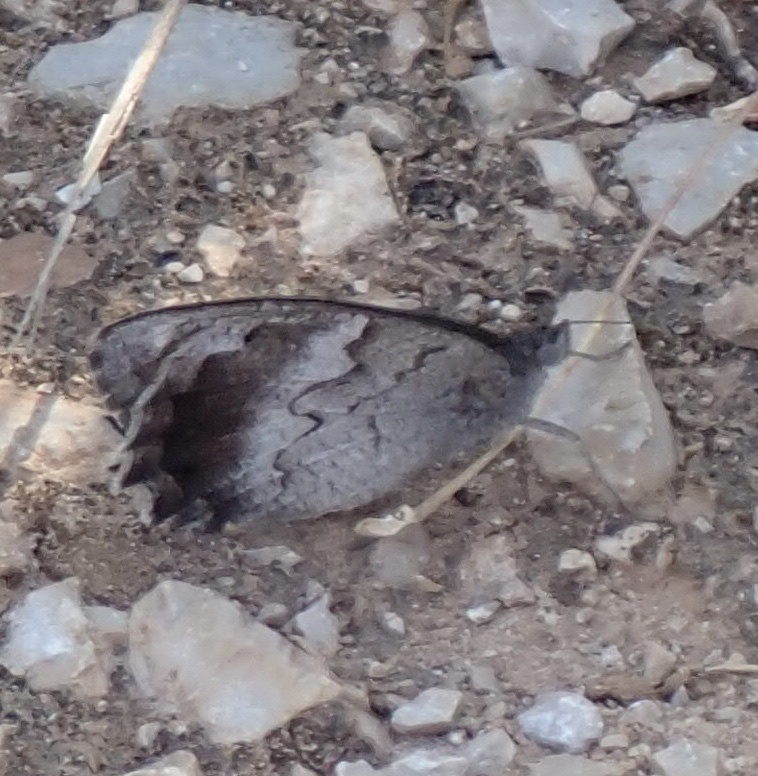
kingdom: Animalia
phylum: Arthropoda
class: Insecta
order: Lepidoptera
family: Nymphalidae
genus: Hipparchia
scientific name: Hipparchia statilinus
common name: Tree grayling
